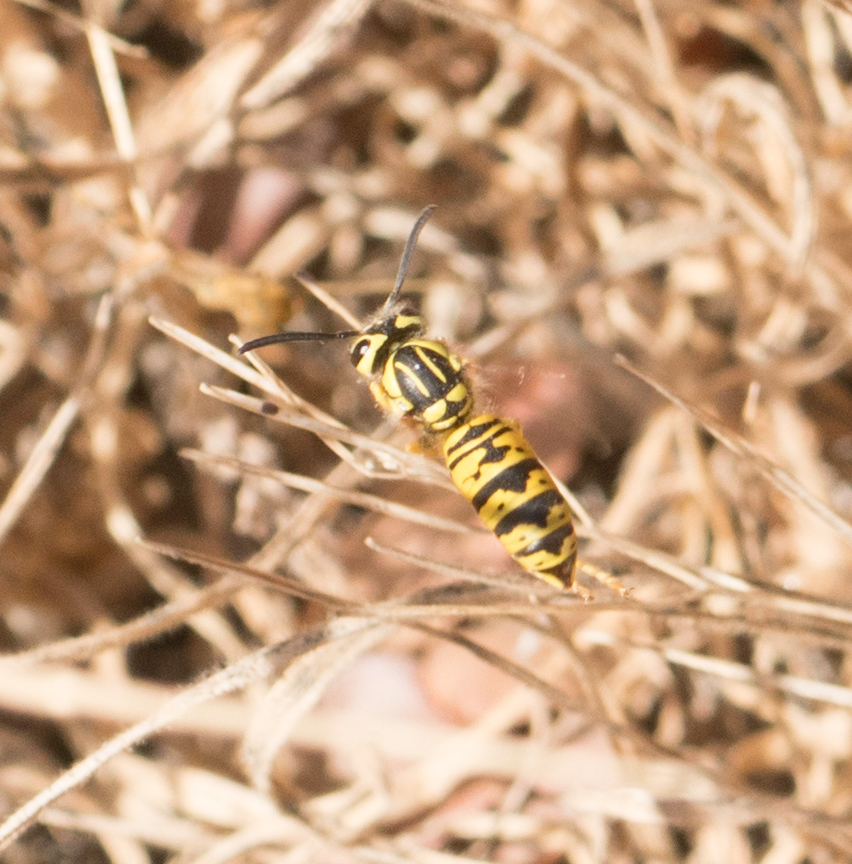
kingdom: Animalia
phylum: Arthropoda
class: Insecta
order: Hymenoptera
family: Vespidae
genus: Vespula
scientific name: Vespula sulphurea
